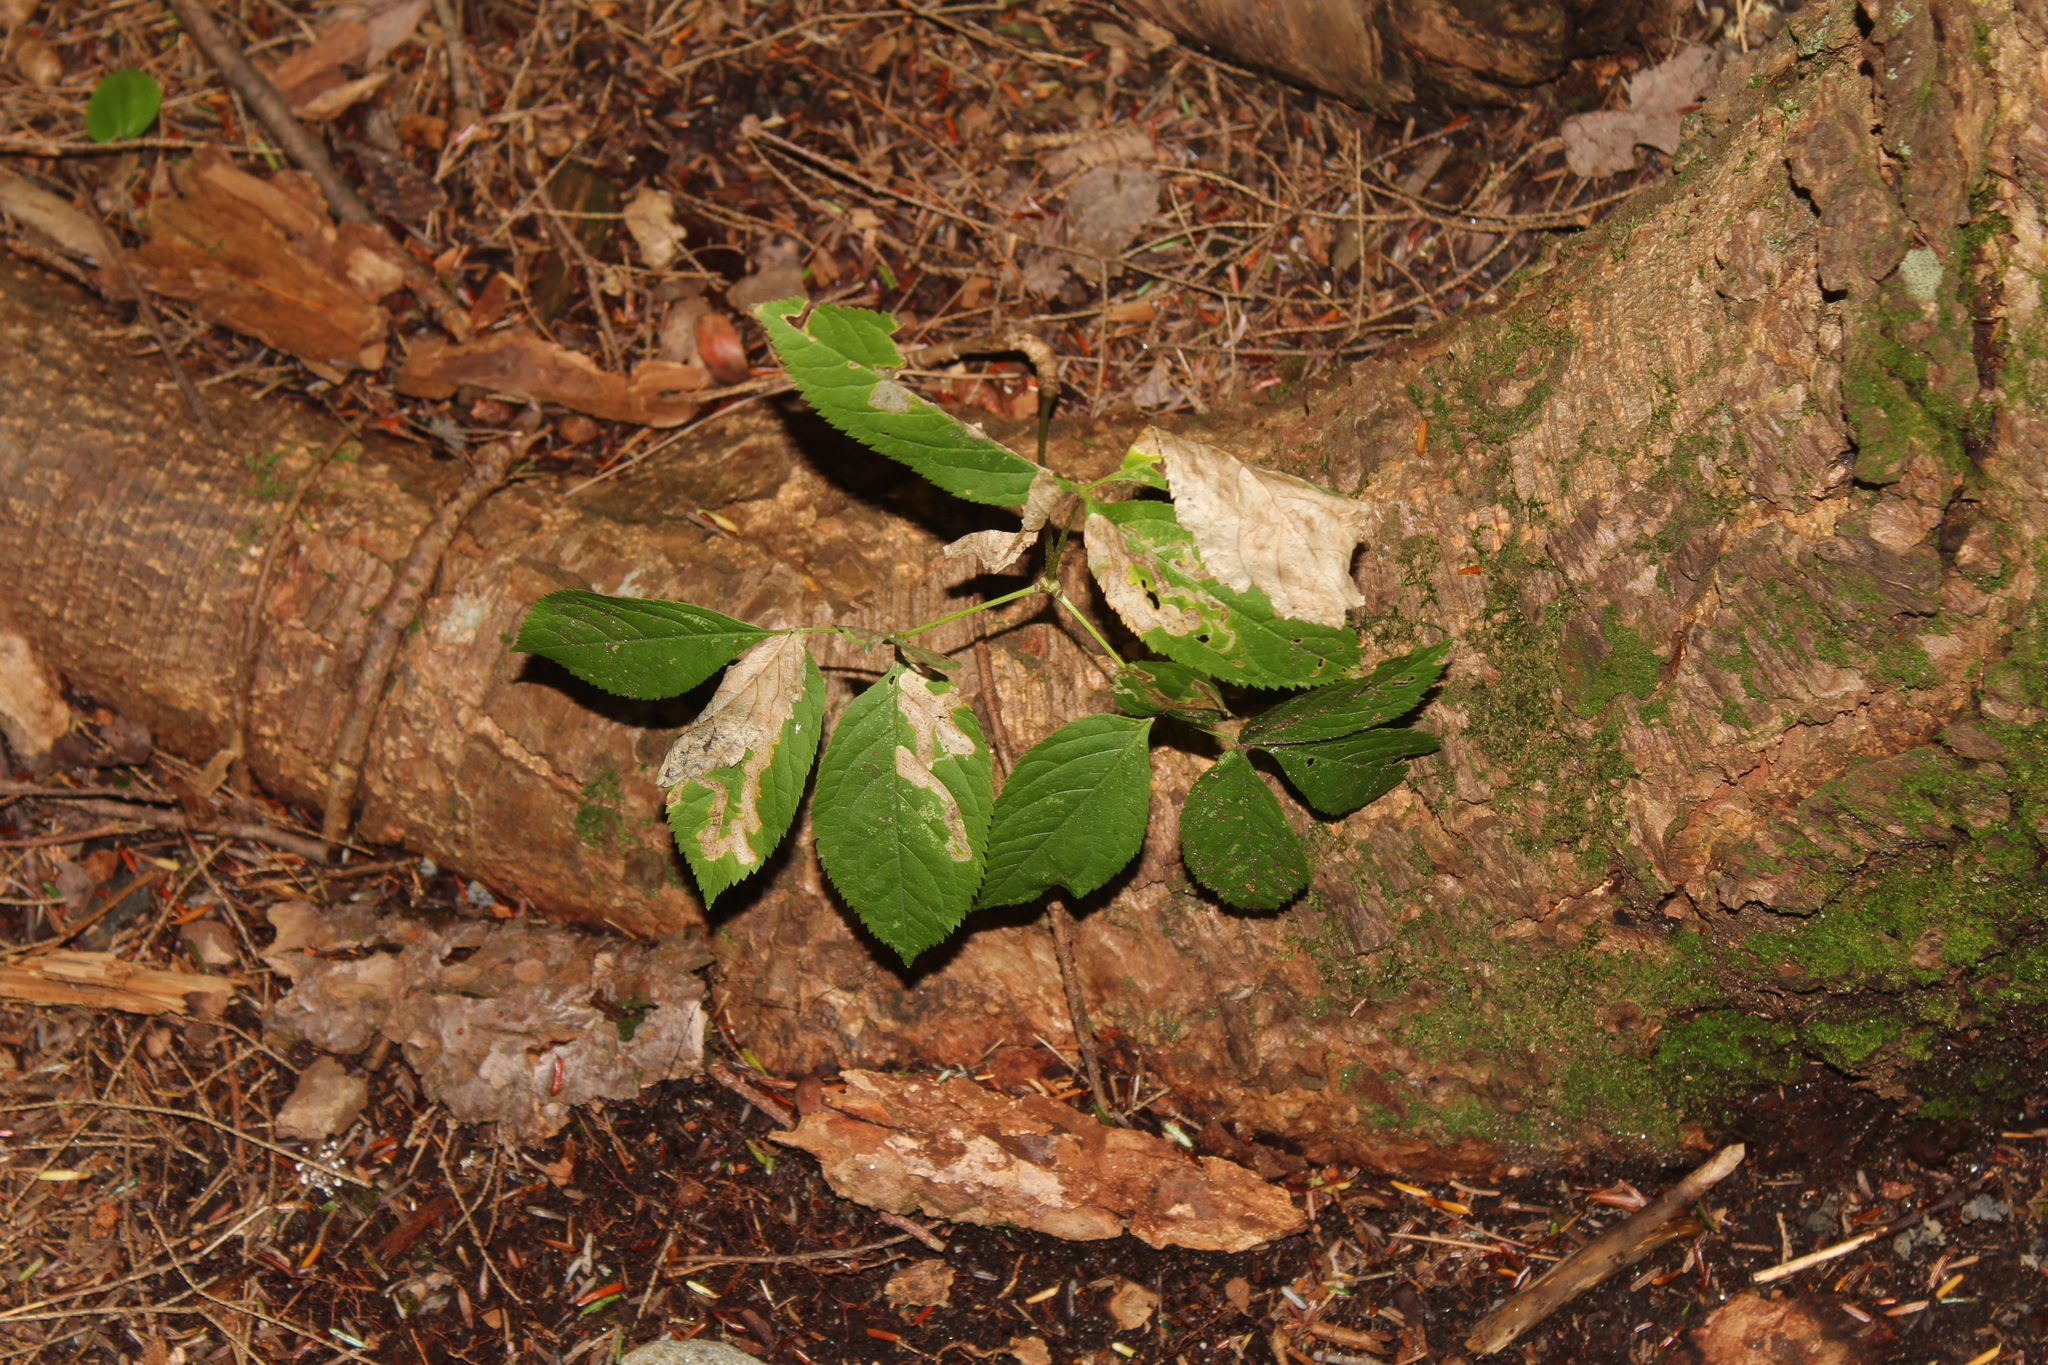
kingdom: Plantae
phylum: Tracheophyta
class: Magnoliopsida
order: Apiales
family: Araliaceae
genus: Aralia
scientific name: Aralia nudicaulis
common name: Wild sarsaparilla
